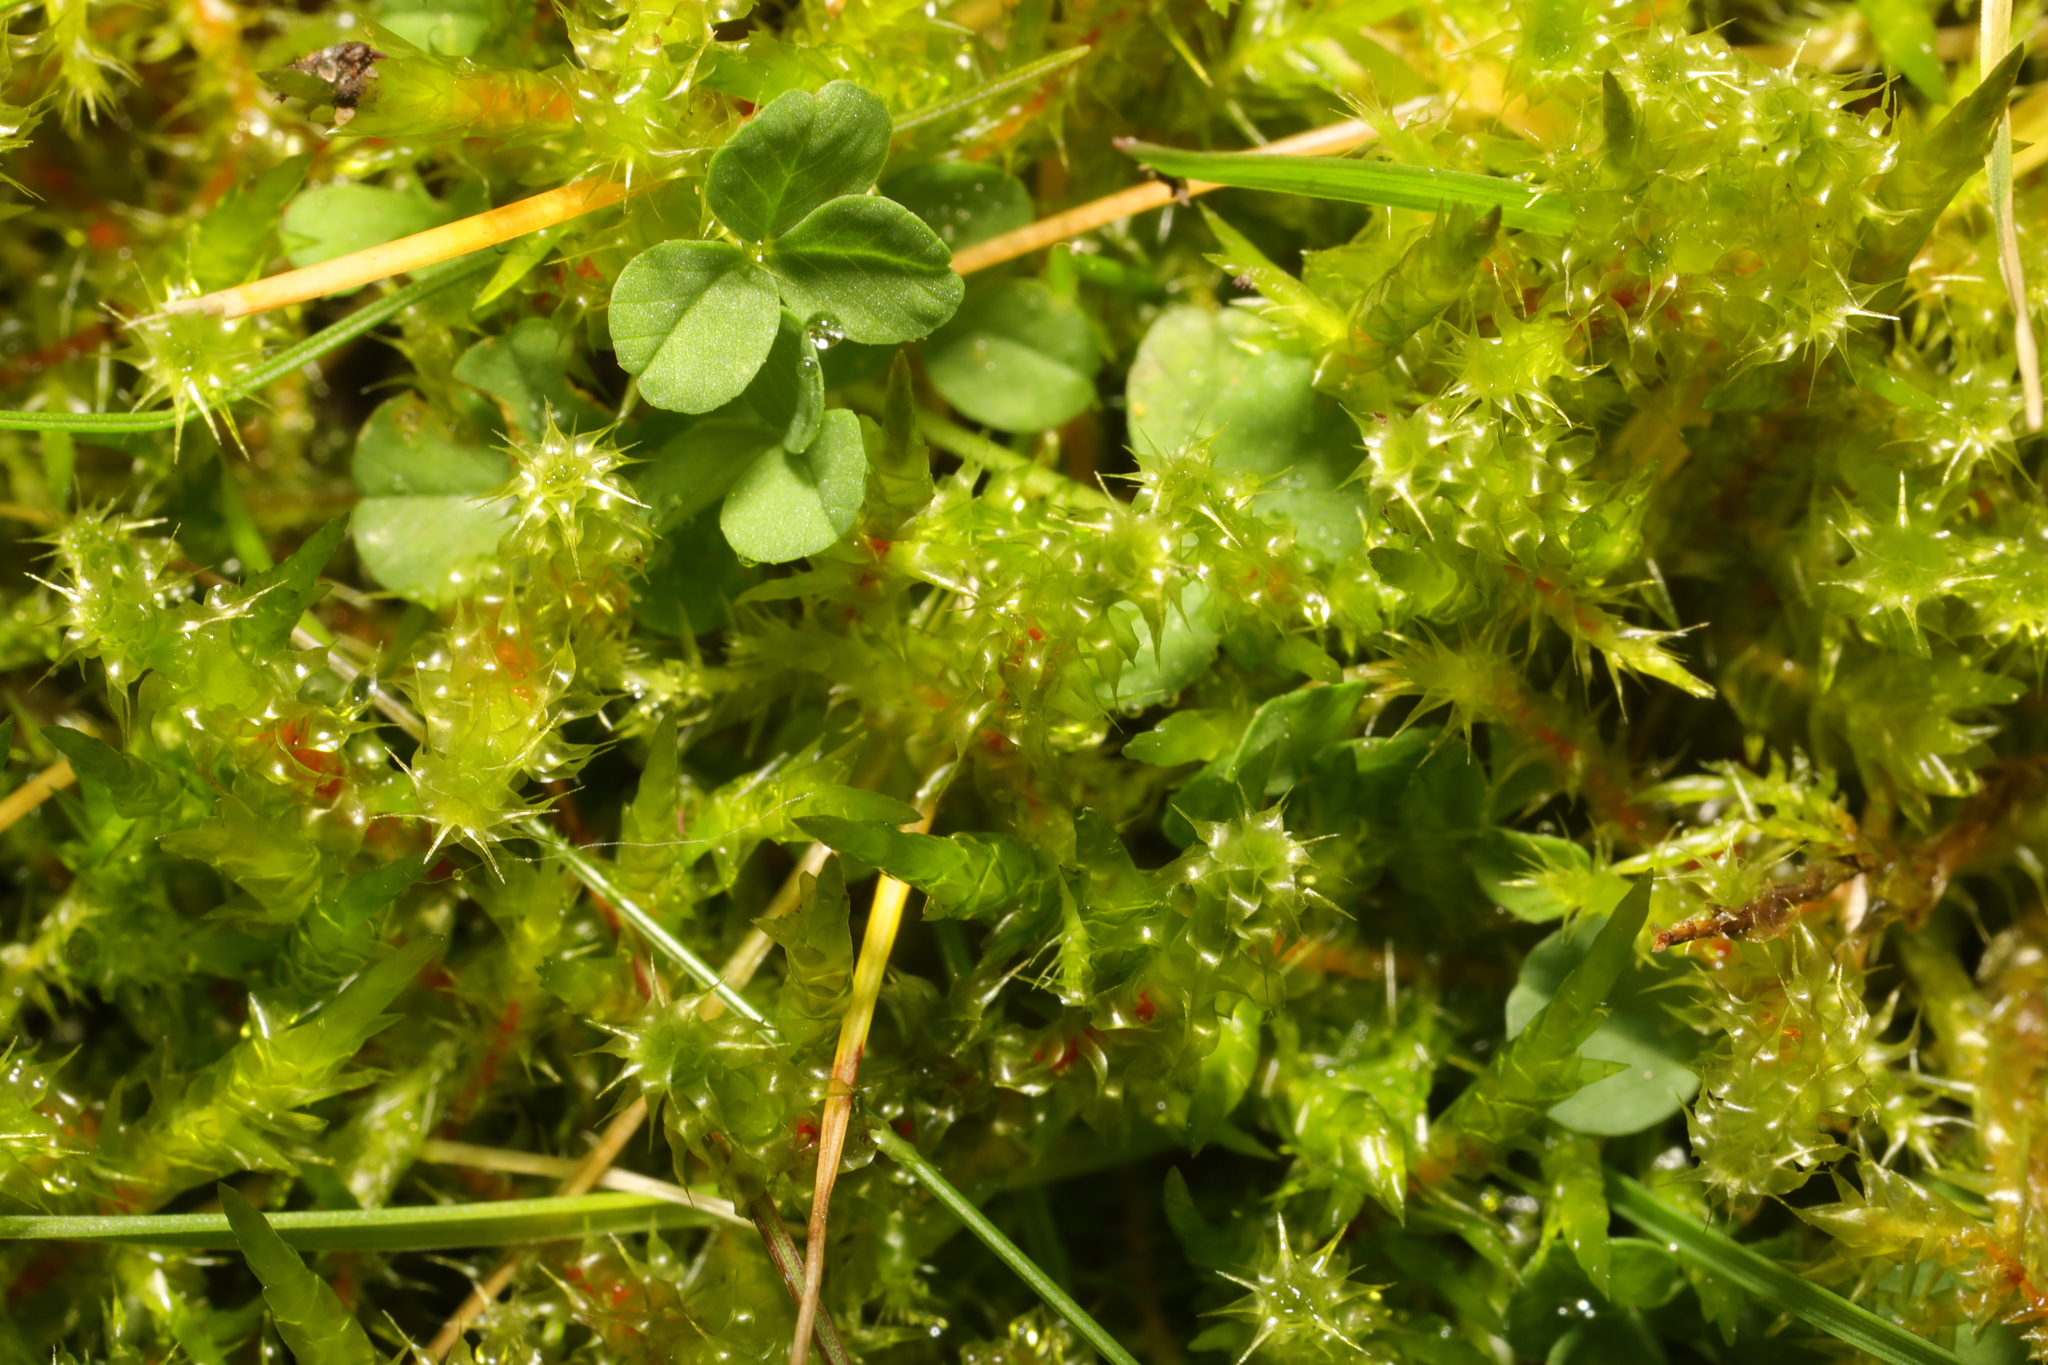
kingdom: Plantae
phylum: Bryophyta
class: Bryopsida
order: Hypnales
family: Hylocomiaceae
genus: Rhytidiadelphus
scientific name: Rhytidiadelphus squarrosus
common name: Springy turf-moss
